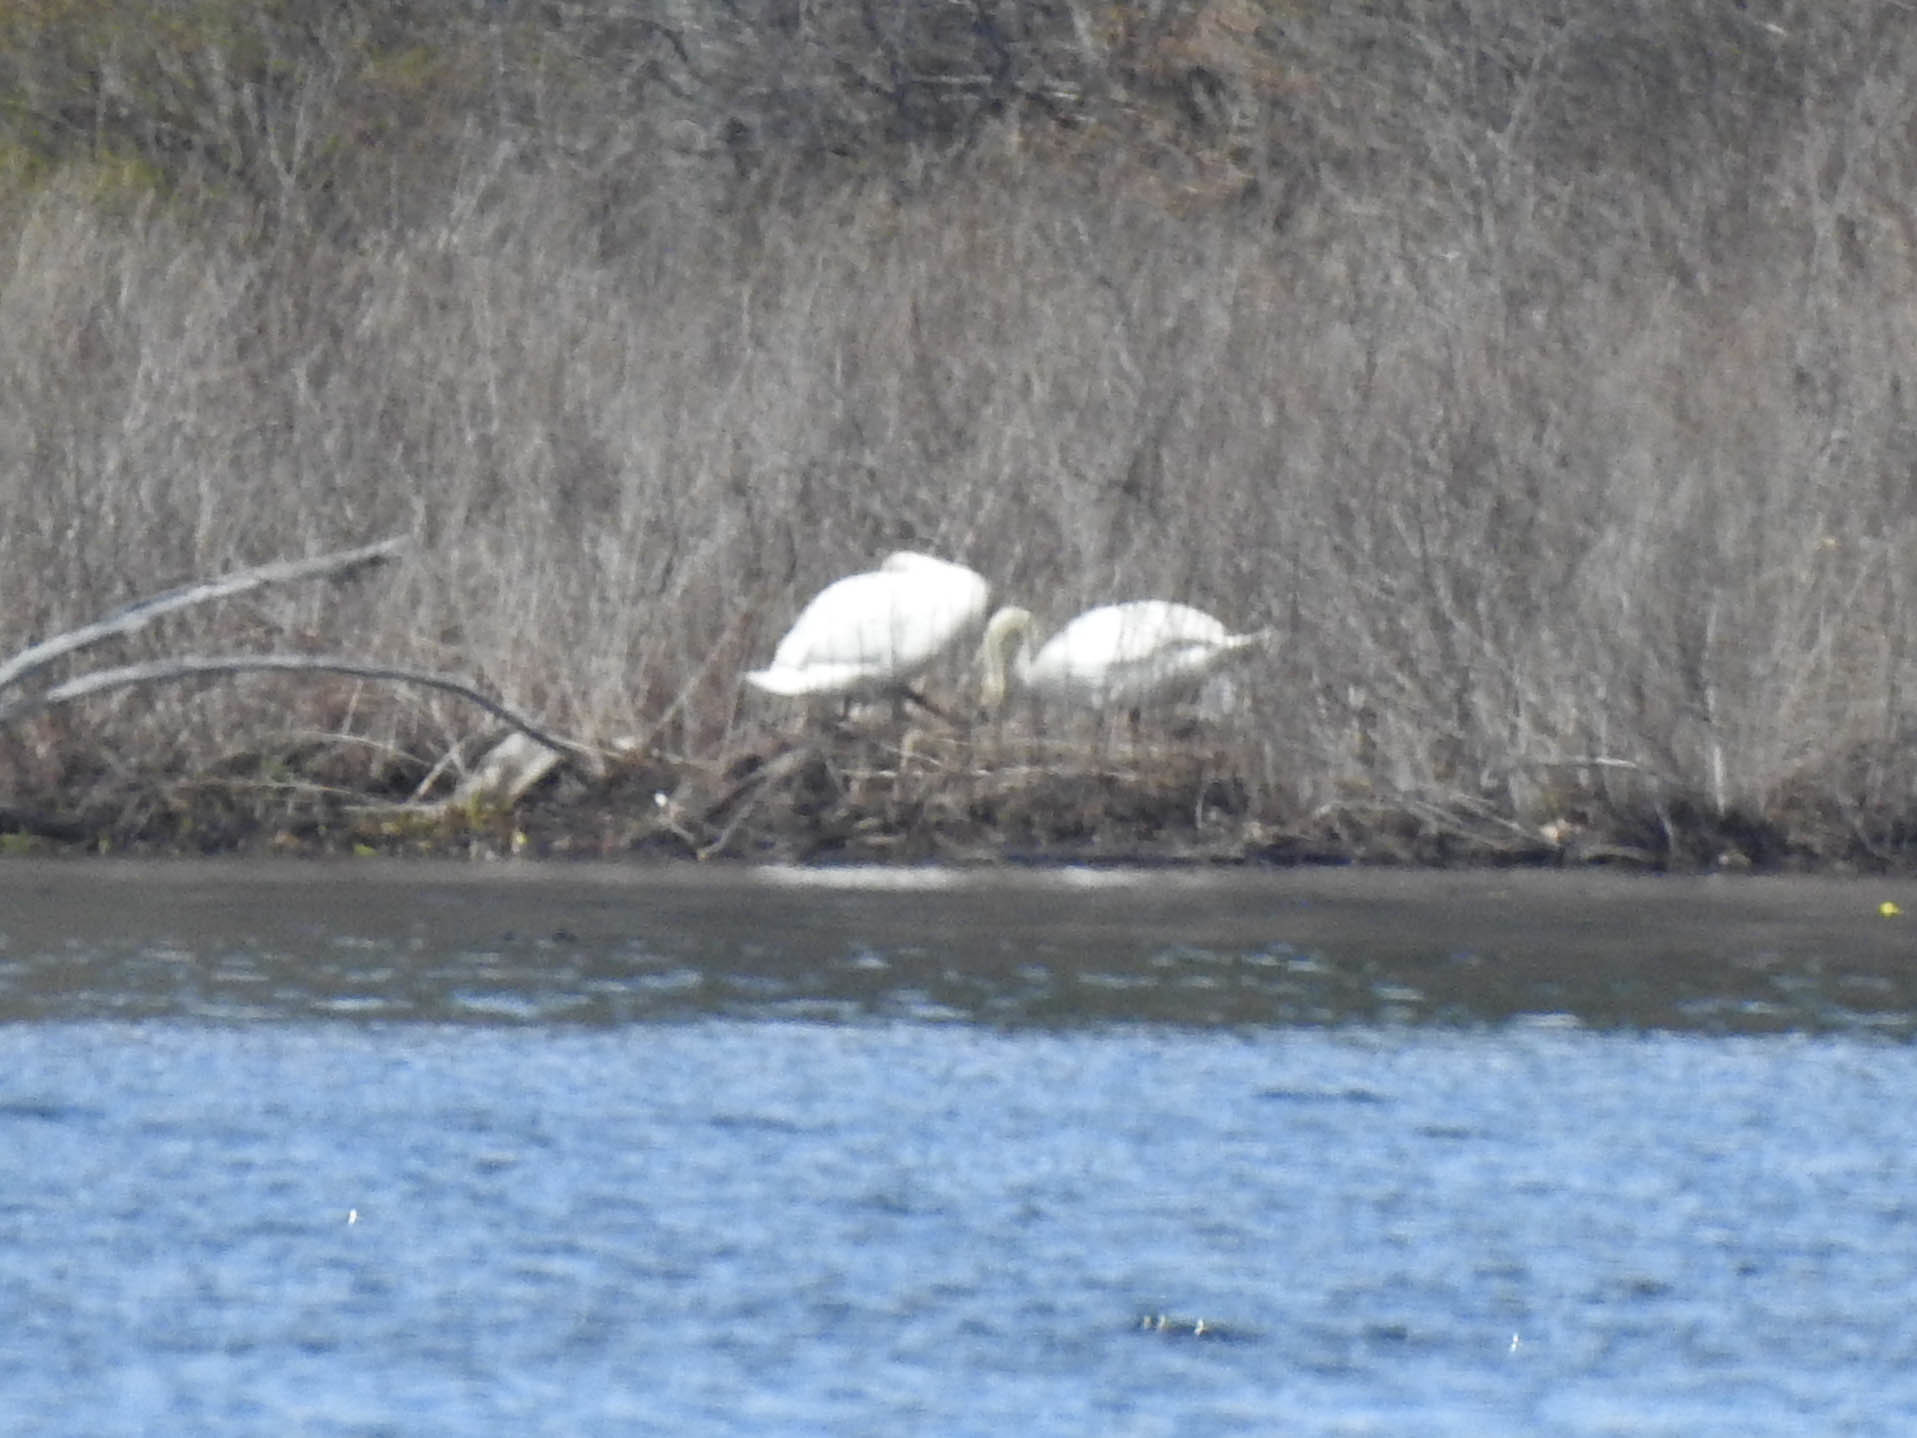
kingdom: Animalia
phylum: Chordata
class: Aves
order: Anseriformes
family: Anatidae
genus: Cygnus
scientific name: Cygnus olor
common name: Mute swan
